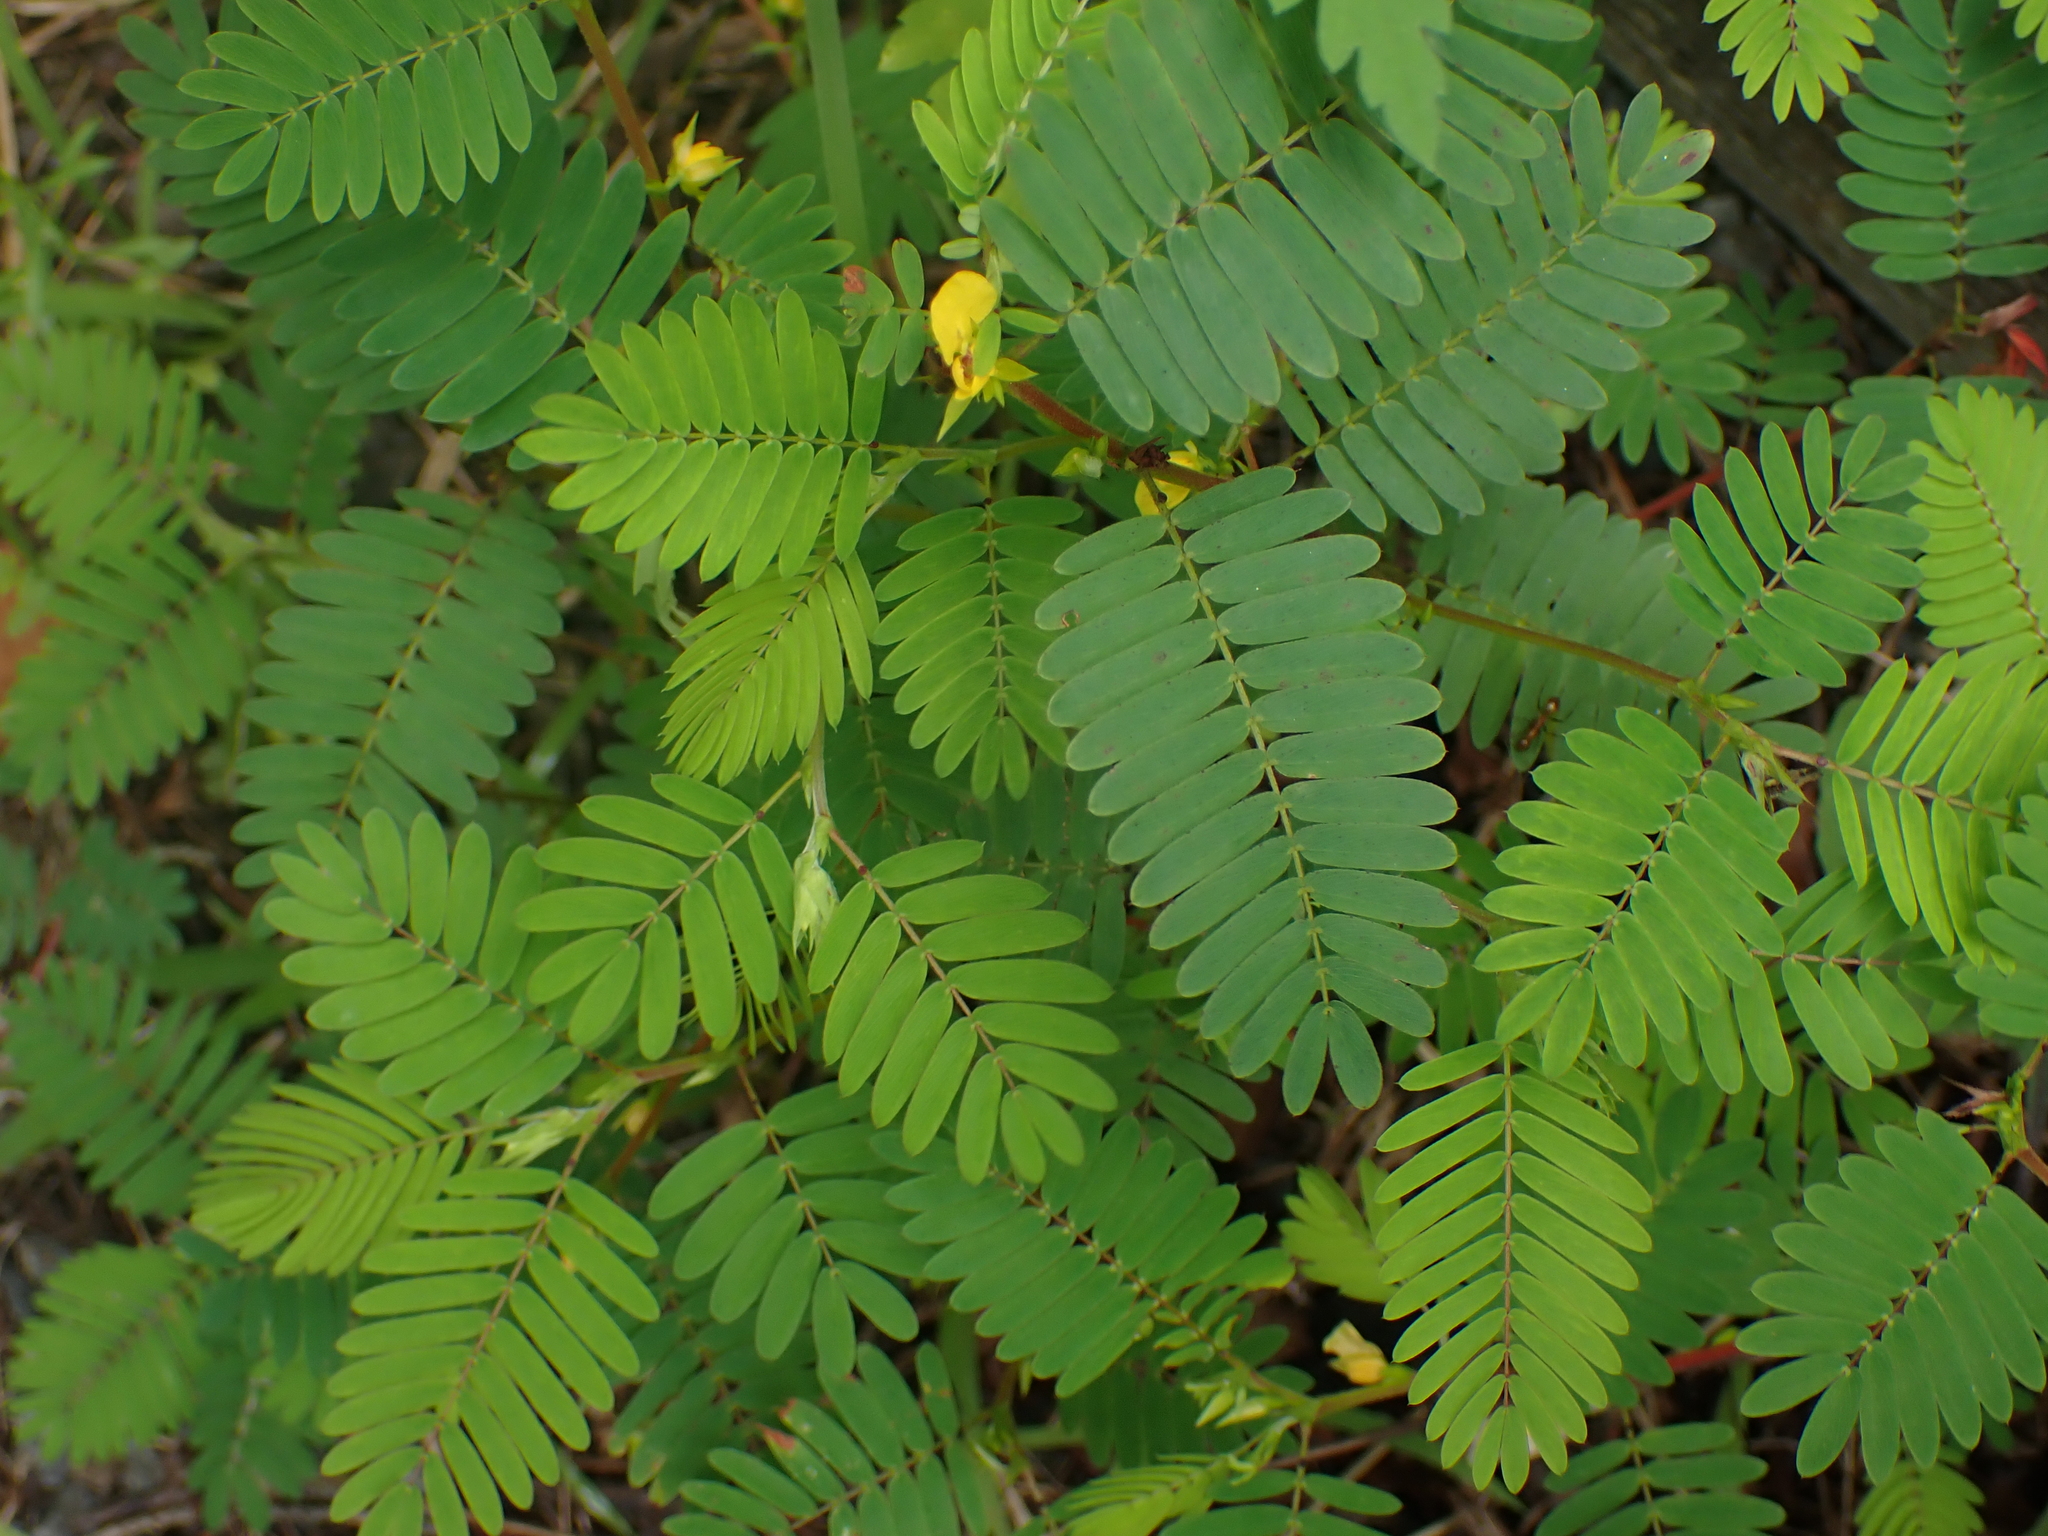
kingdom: Plantae
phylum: Tracheophyta
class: Magnoliopsida
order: Fabales
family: Fabaceae
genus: Chamaecrista
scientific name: Chamaecrista nictitans
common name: Sensitive cassia
